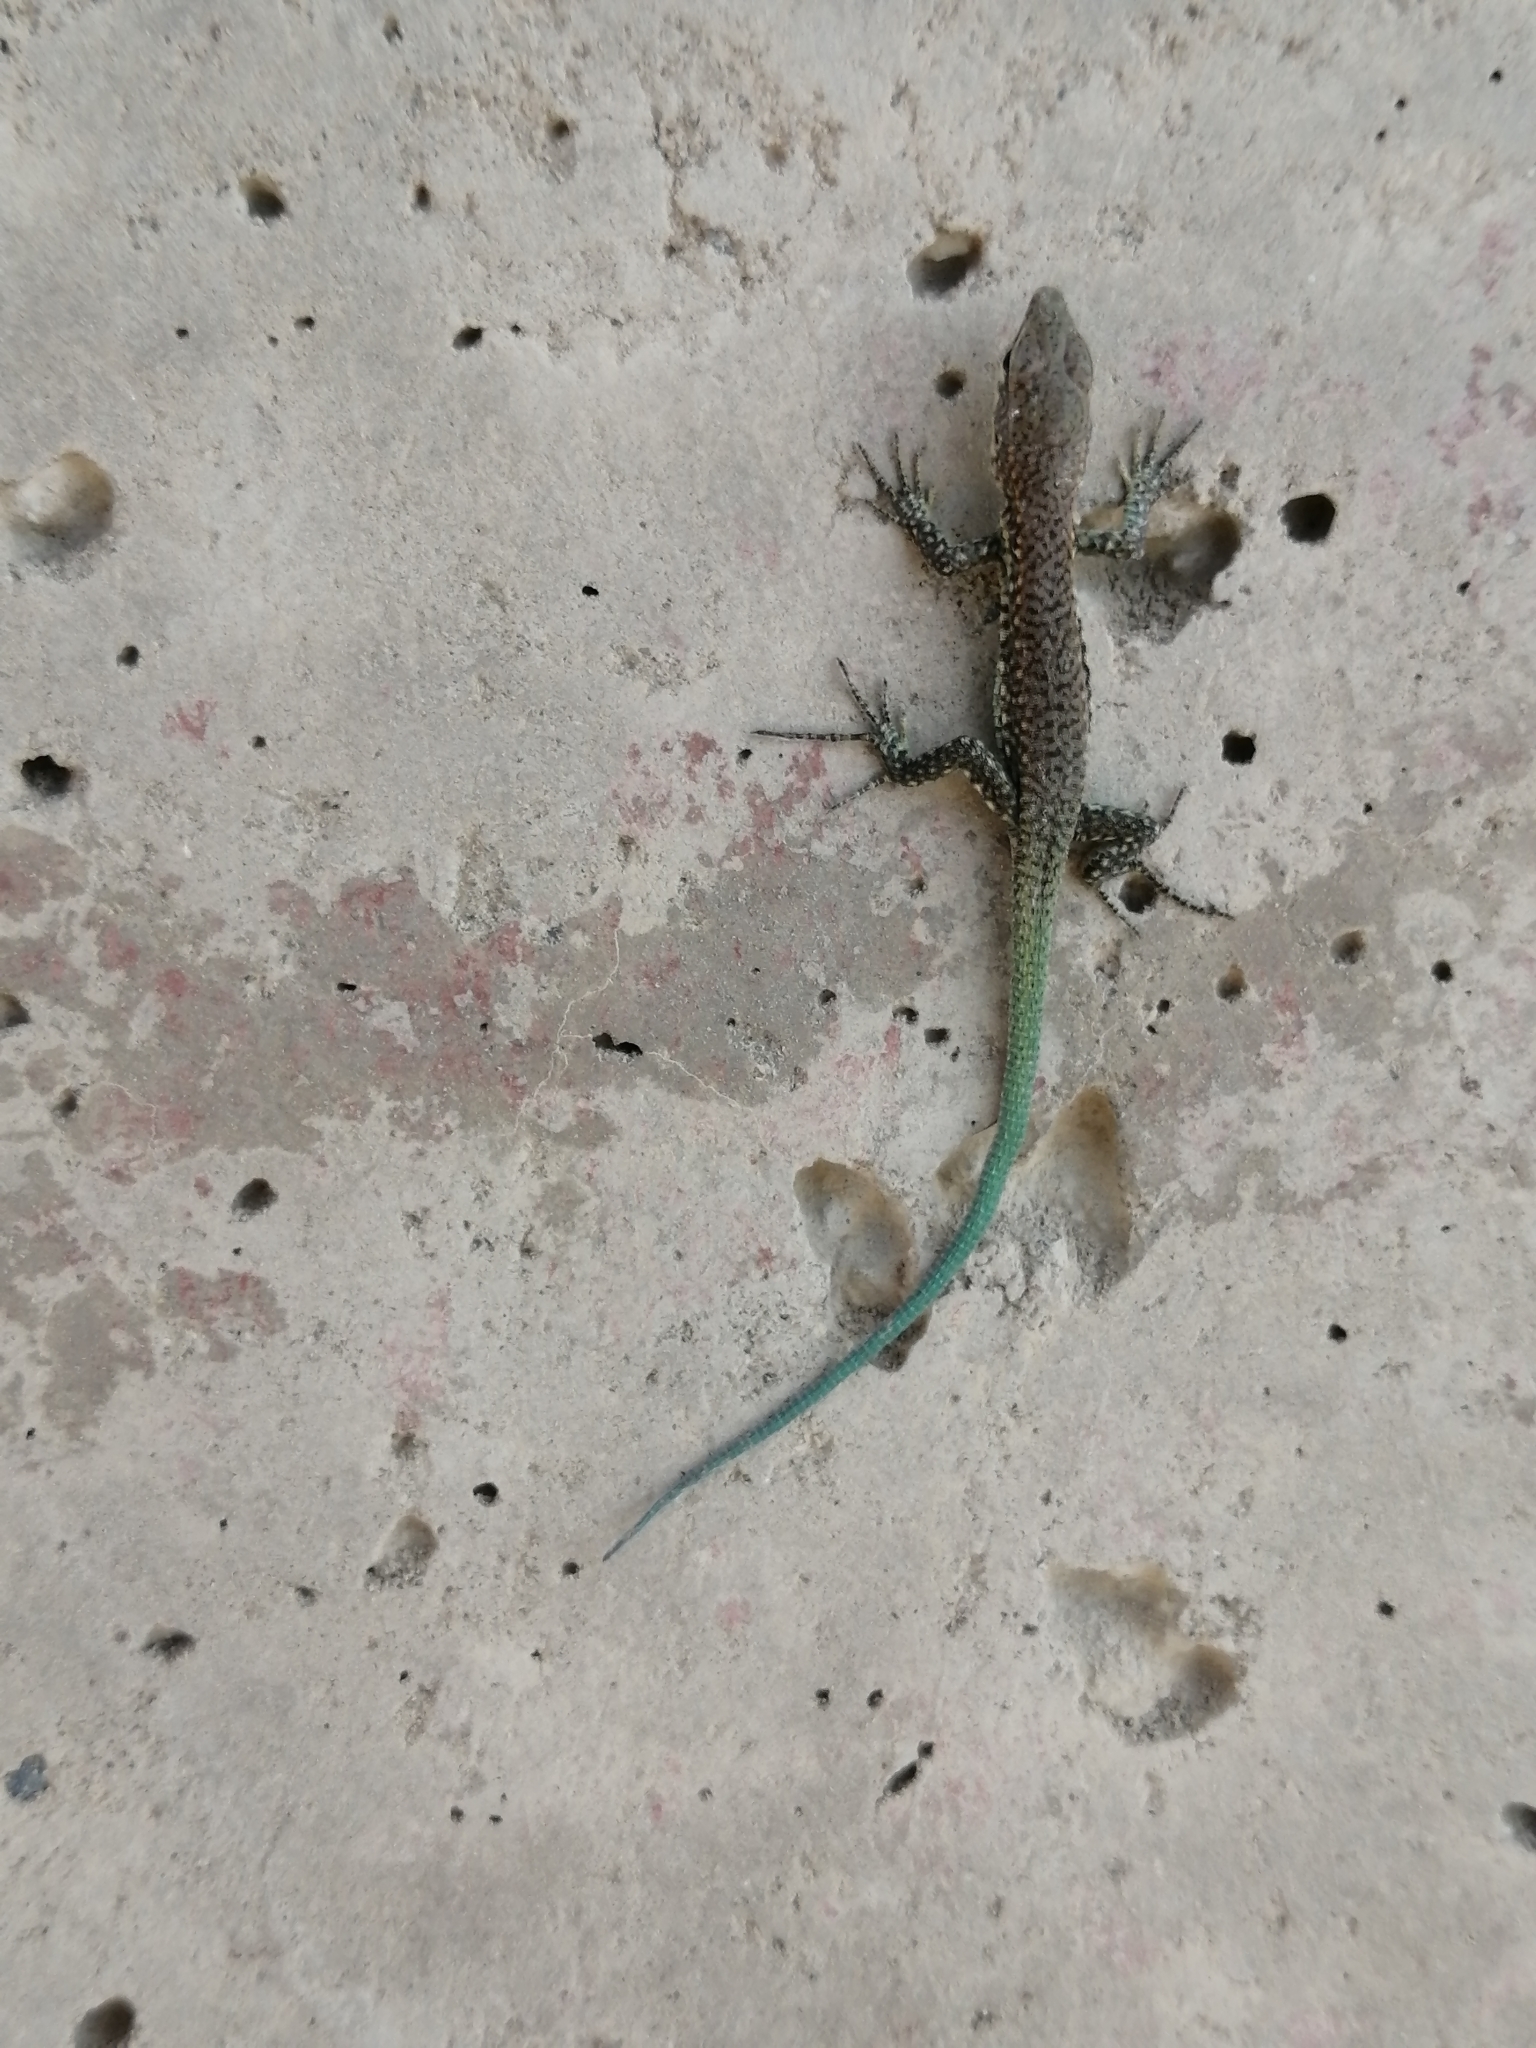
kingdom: Animalia
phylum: Chordata
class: Squamata
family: Lacertidae
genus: Darevskia
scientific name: Darevskia brauneri
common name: Brauner's rock lizard
